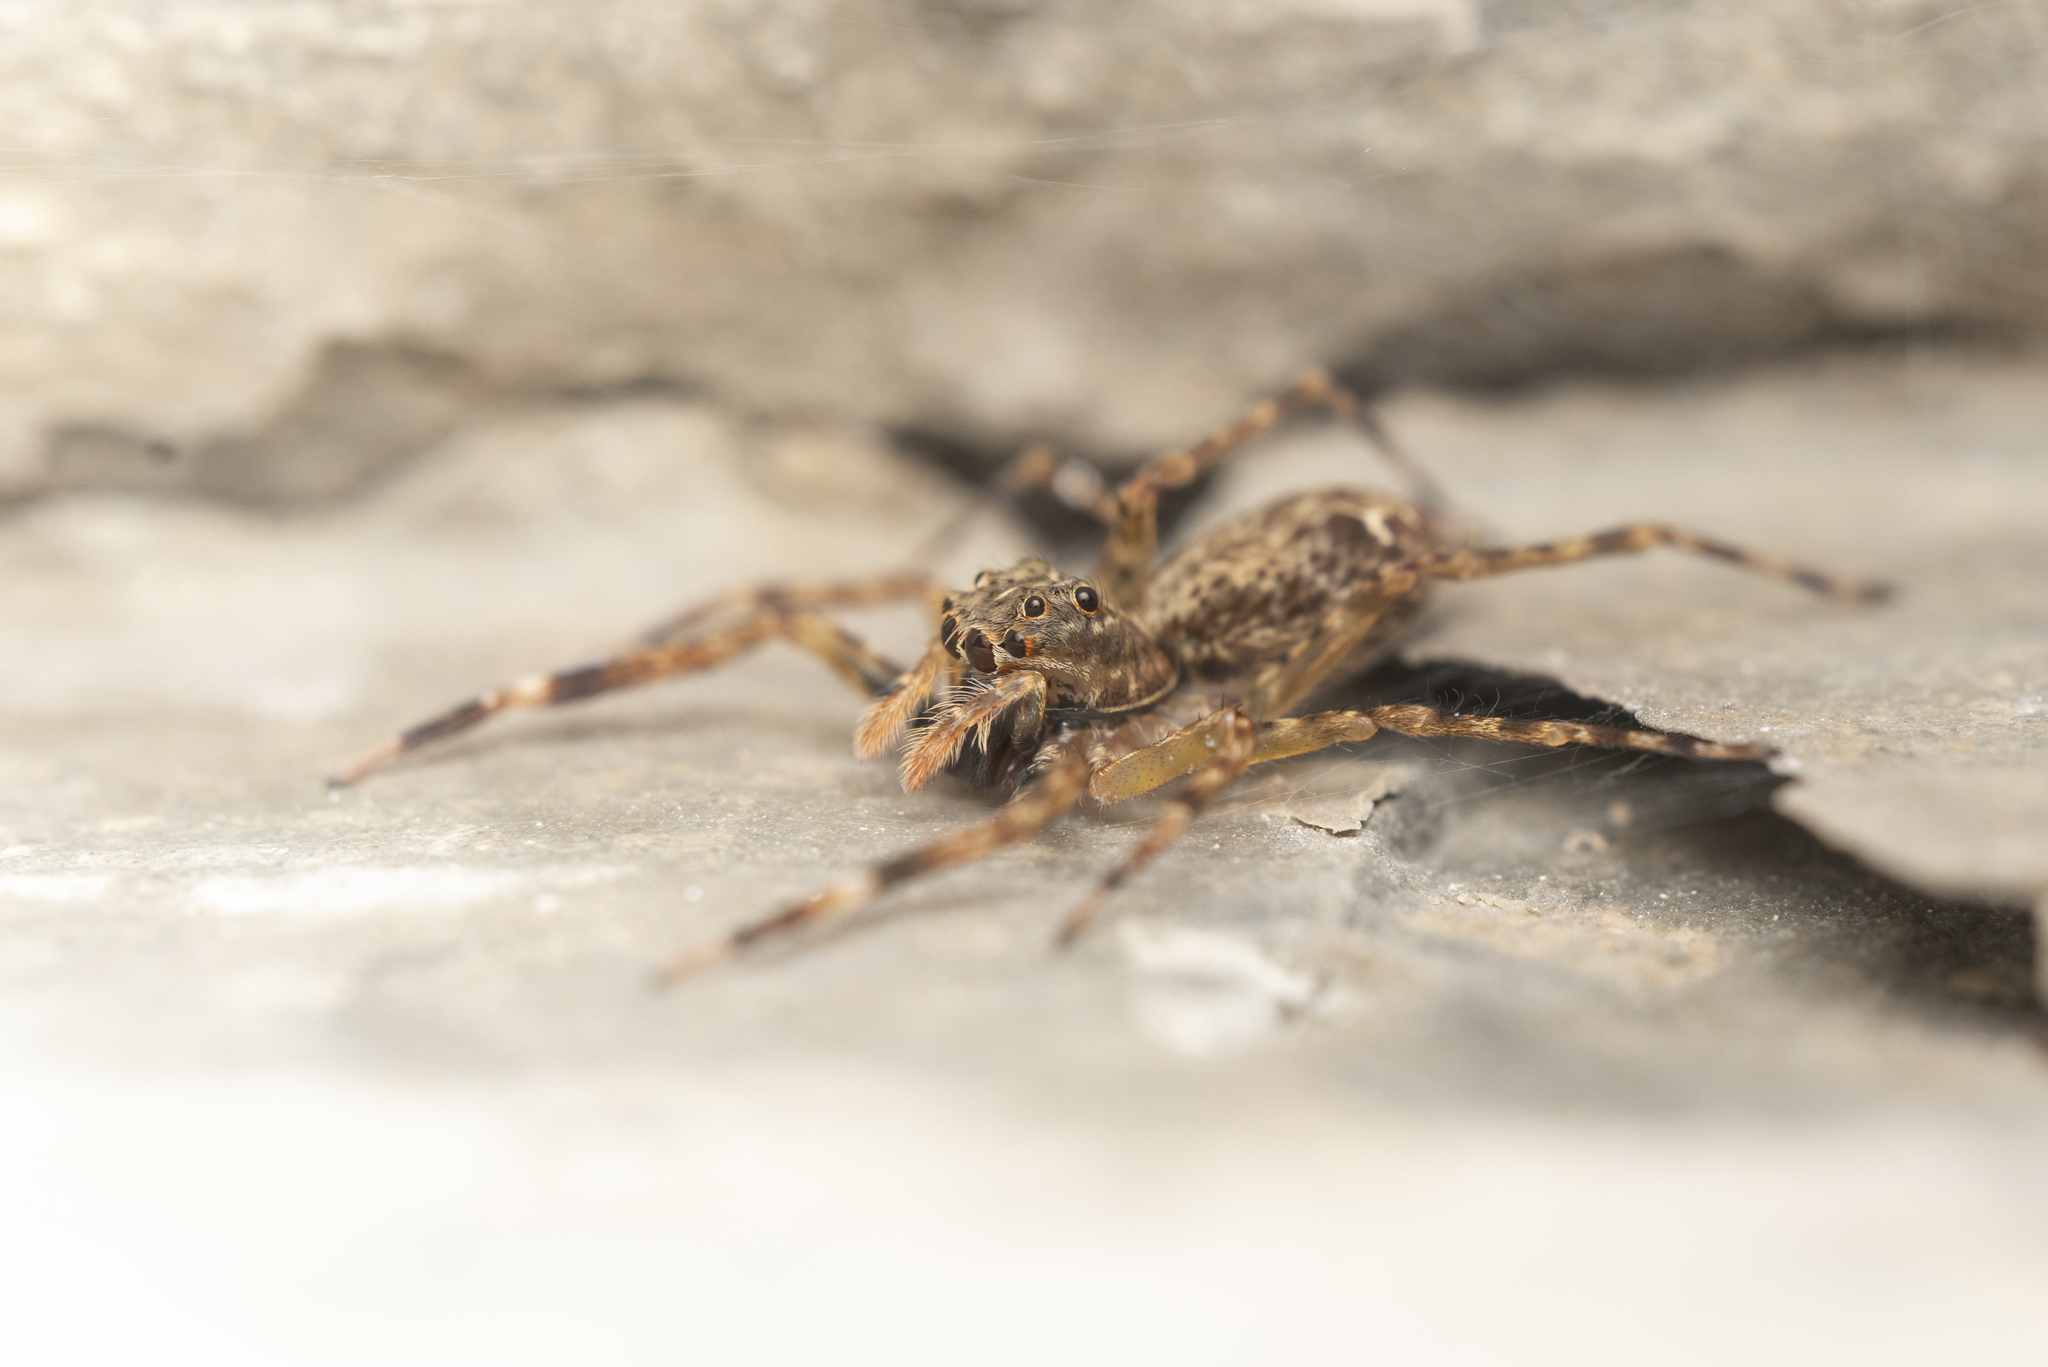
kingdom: Animalia
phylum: Arthropoda
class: Arachnida
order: Araneae
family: Salticidae
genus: Spartaeus
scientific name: Spartaeus zhangi
